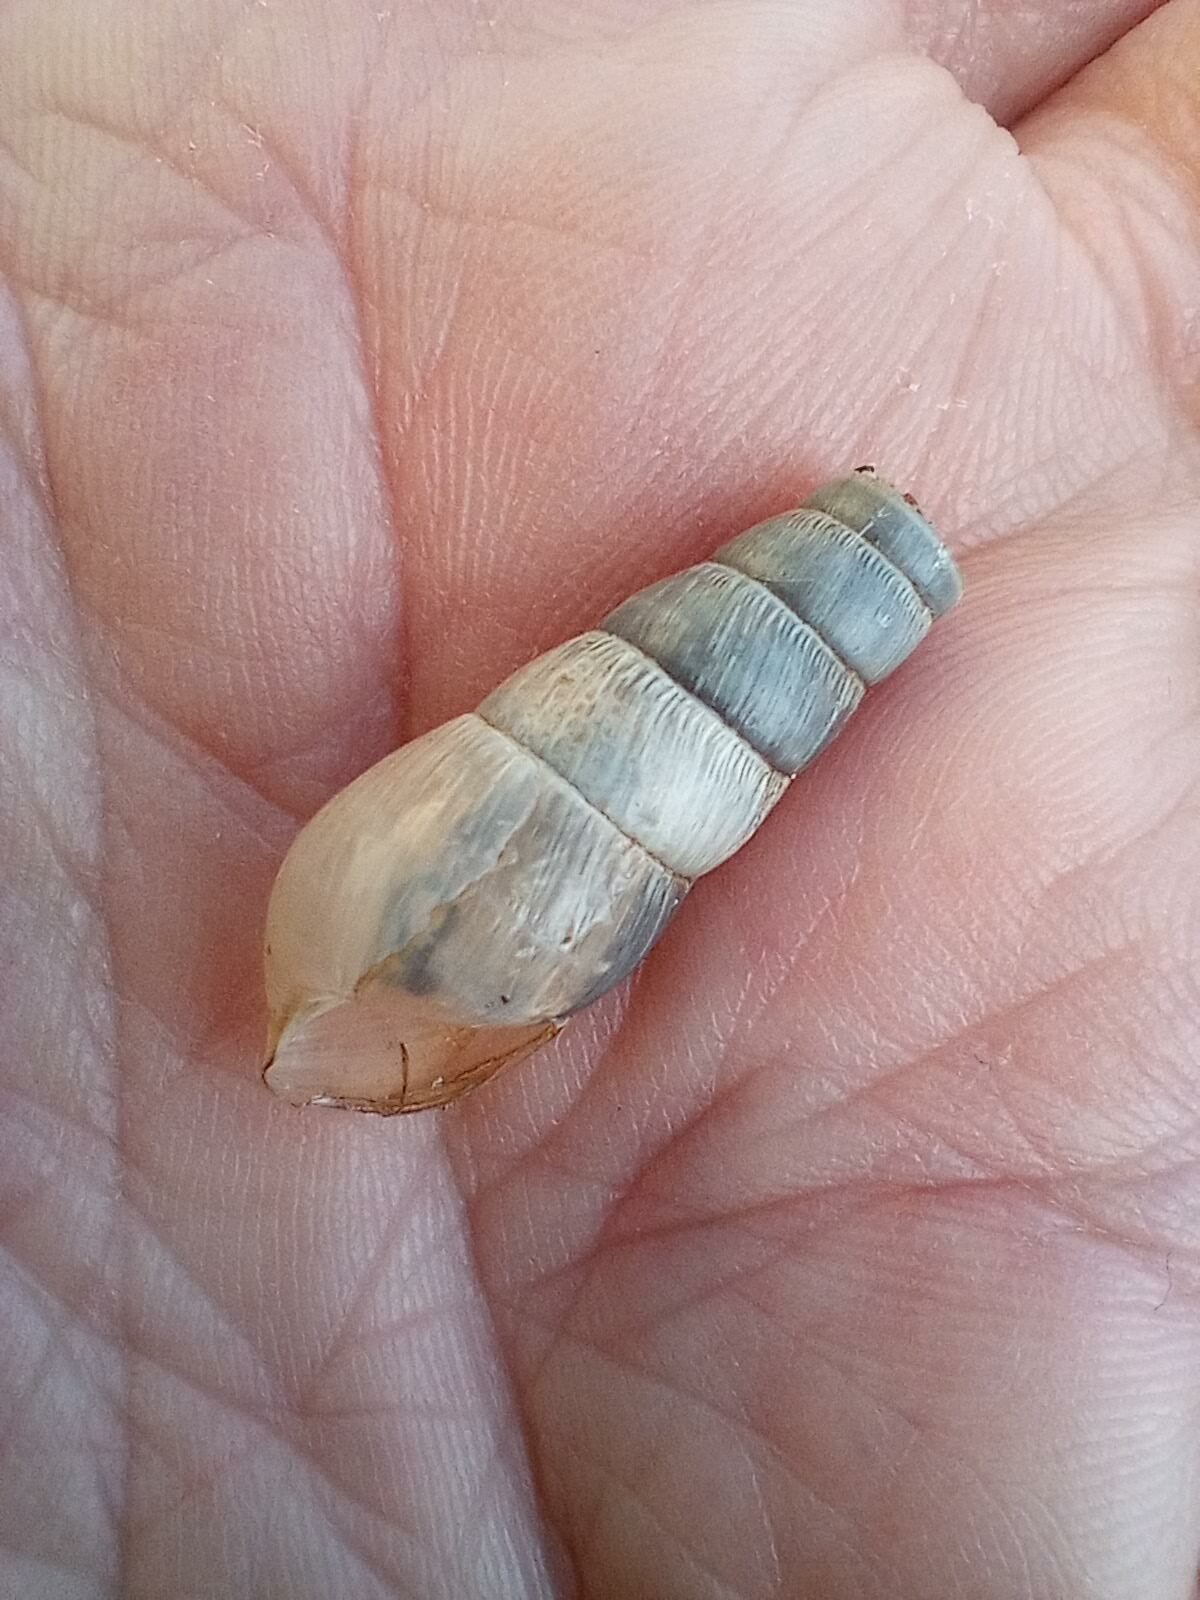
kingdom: Animalia
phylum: Mollusca
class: Gastropoda
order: Stylommatophora
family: Achatinidae
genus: Rumina
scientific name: Rumina decollata
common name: Decollate snail
